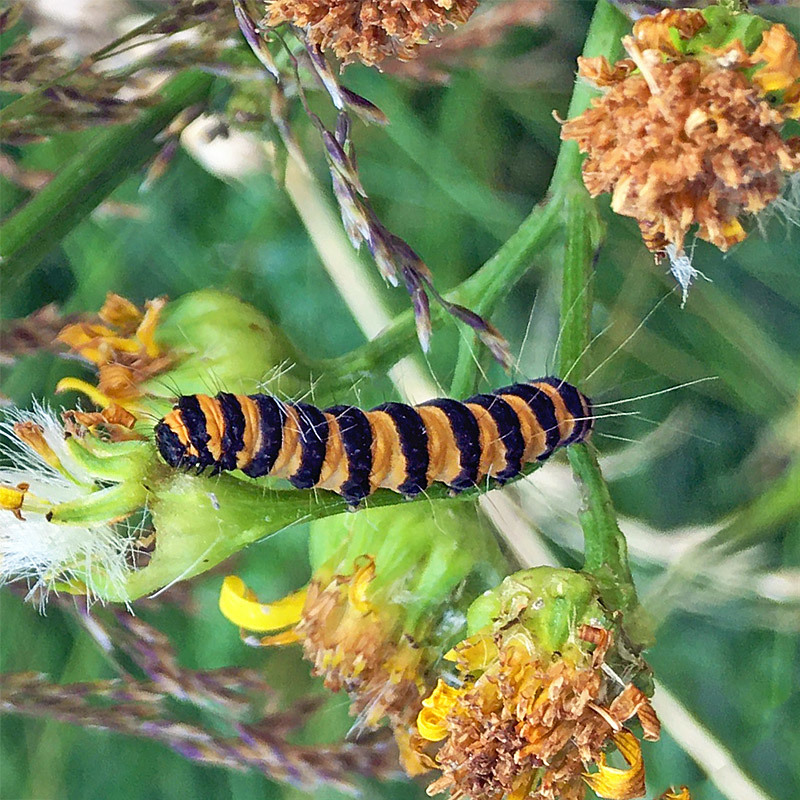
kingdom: Animalia
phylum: Arthropoda
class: Insecta
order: Lepidoptera
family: Erebidae
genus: Tyria
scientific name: Tyria jacobaeae
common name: Cinnabar
